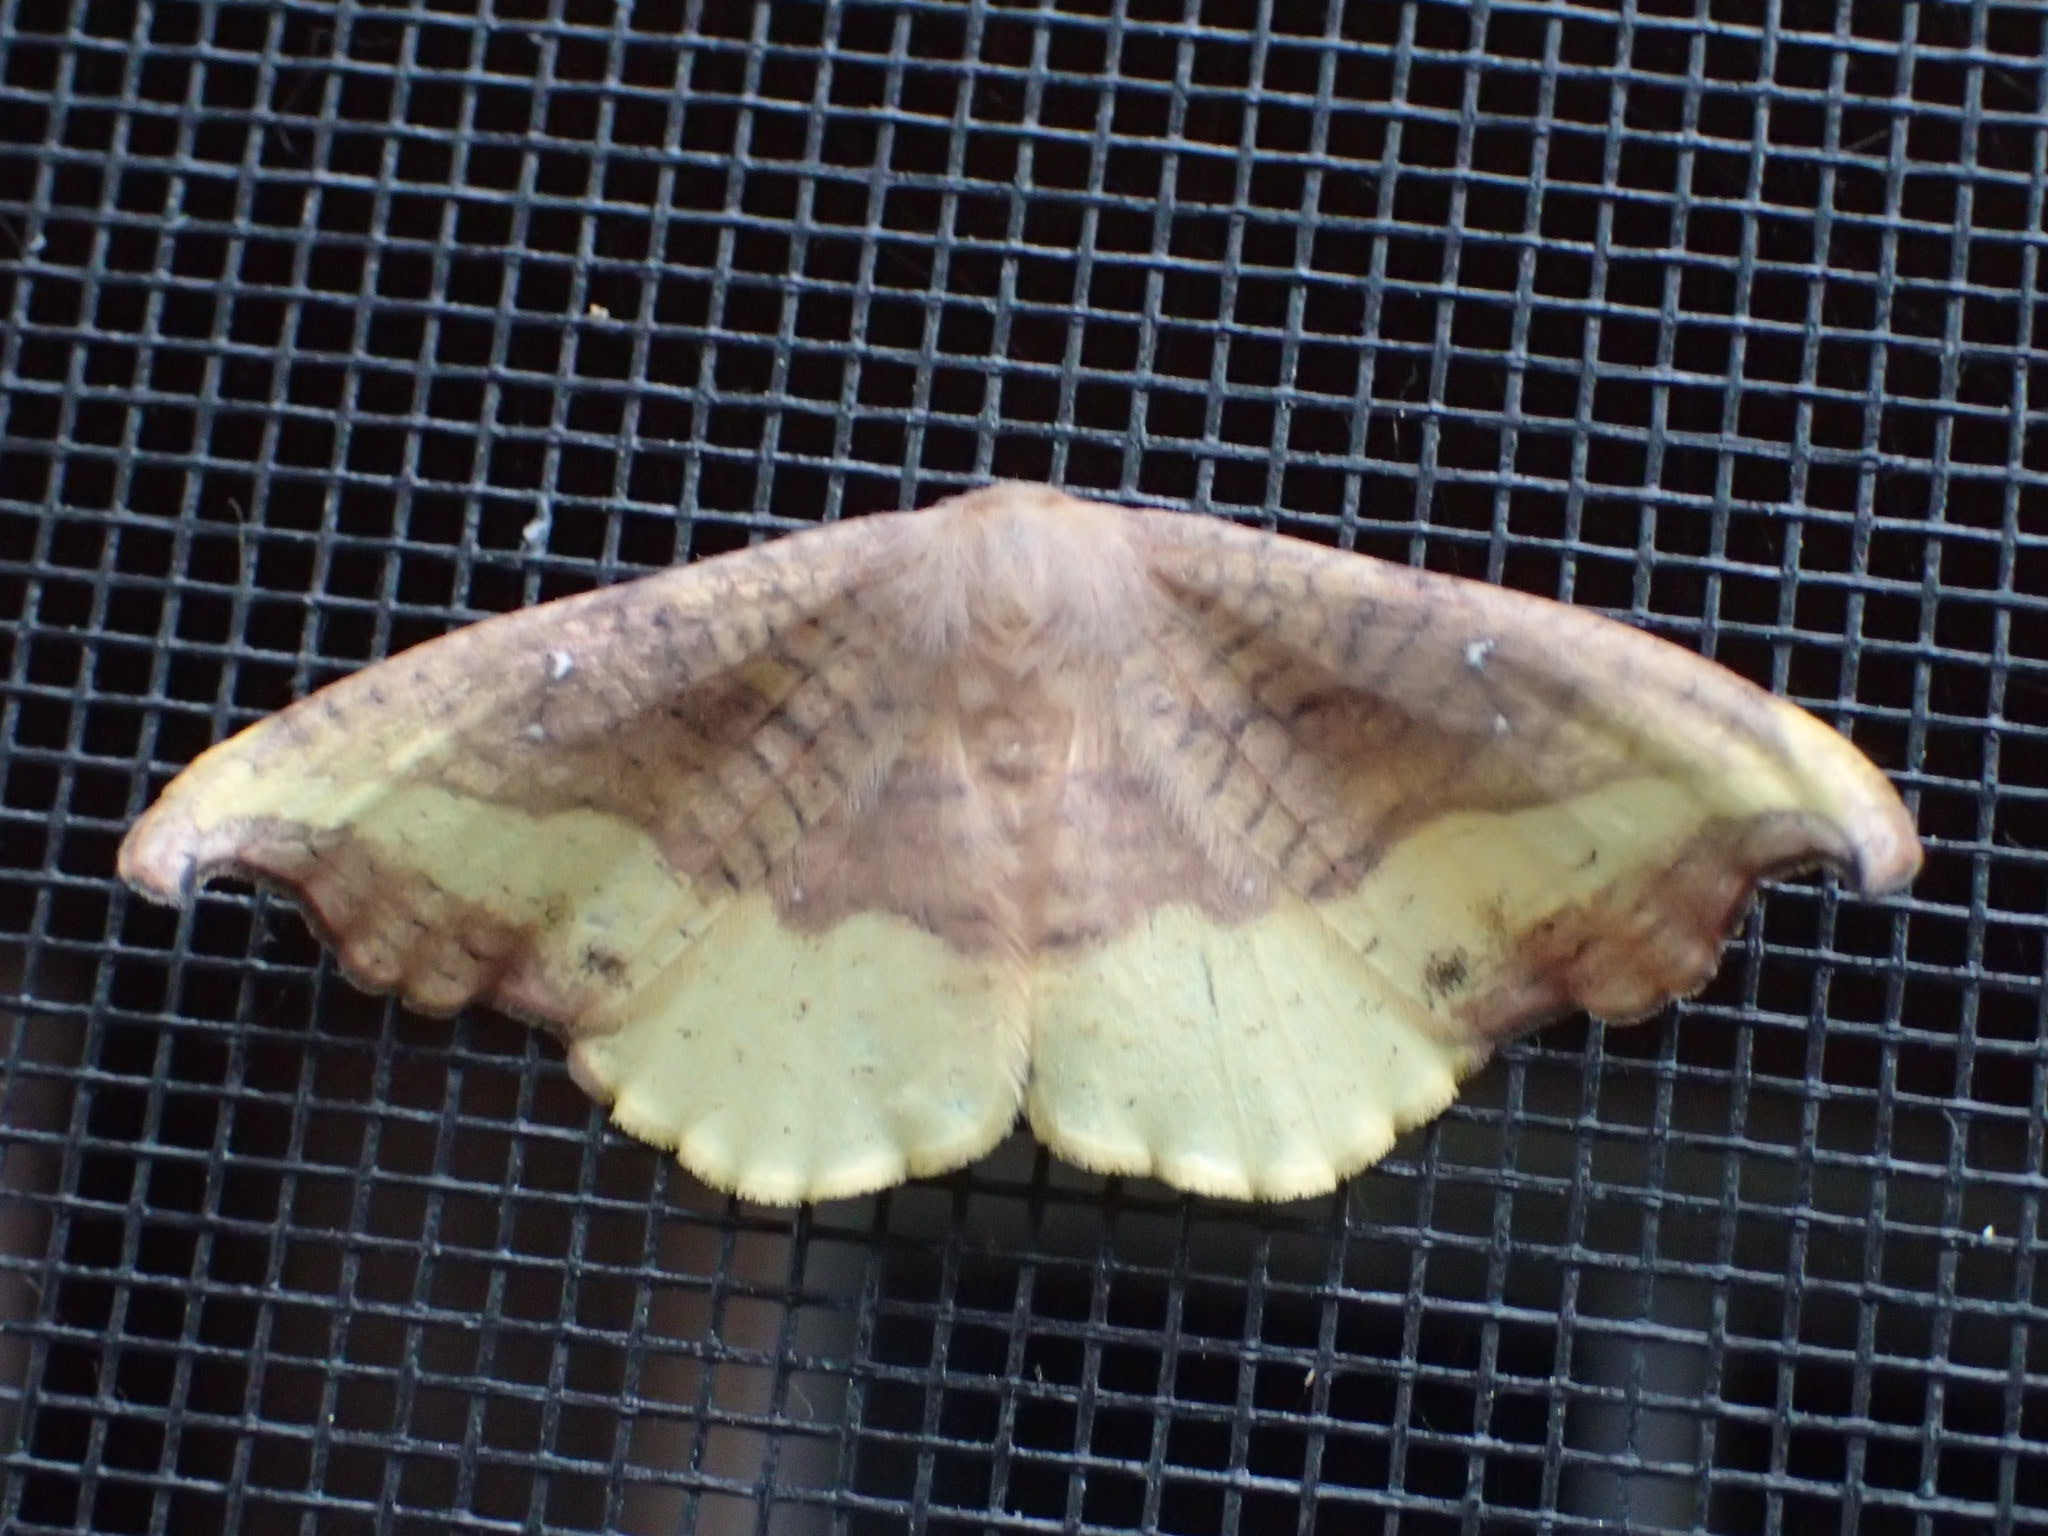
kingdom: Animalia
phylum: Arthropoda
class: Insecta
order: Lepidoptera
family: Drepanidae
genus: Oreta
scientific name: Oreta rosea
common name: Rose hooktip
